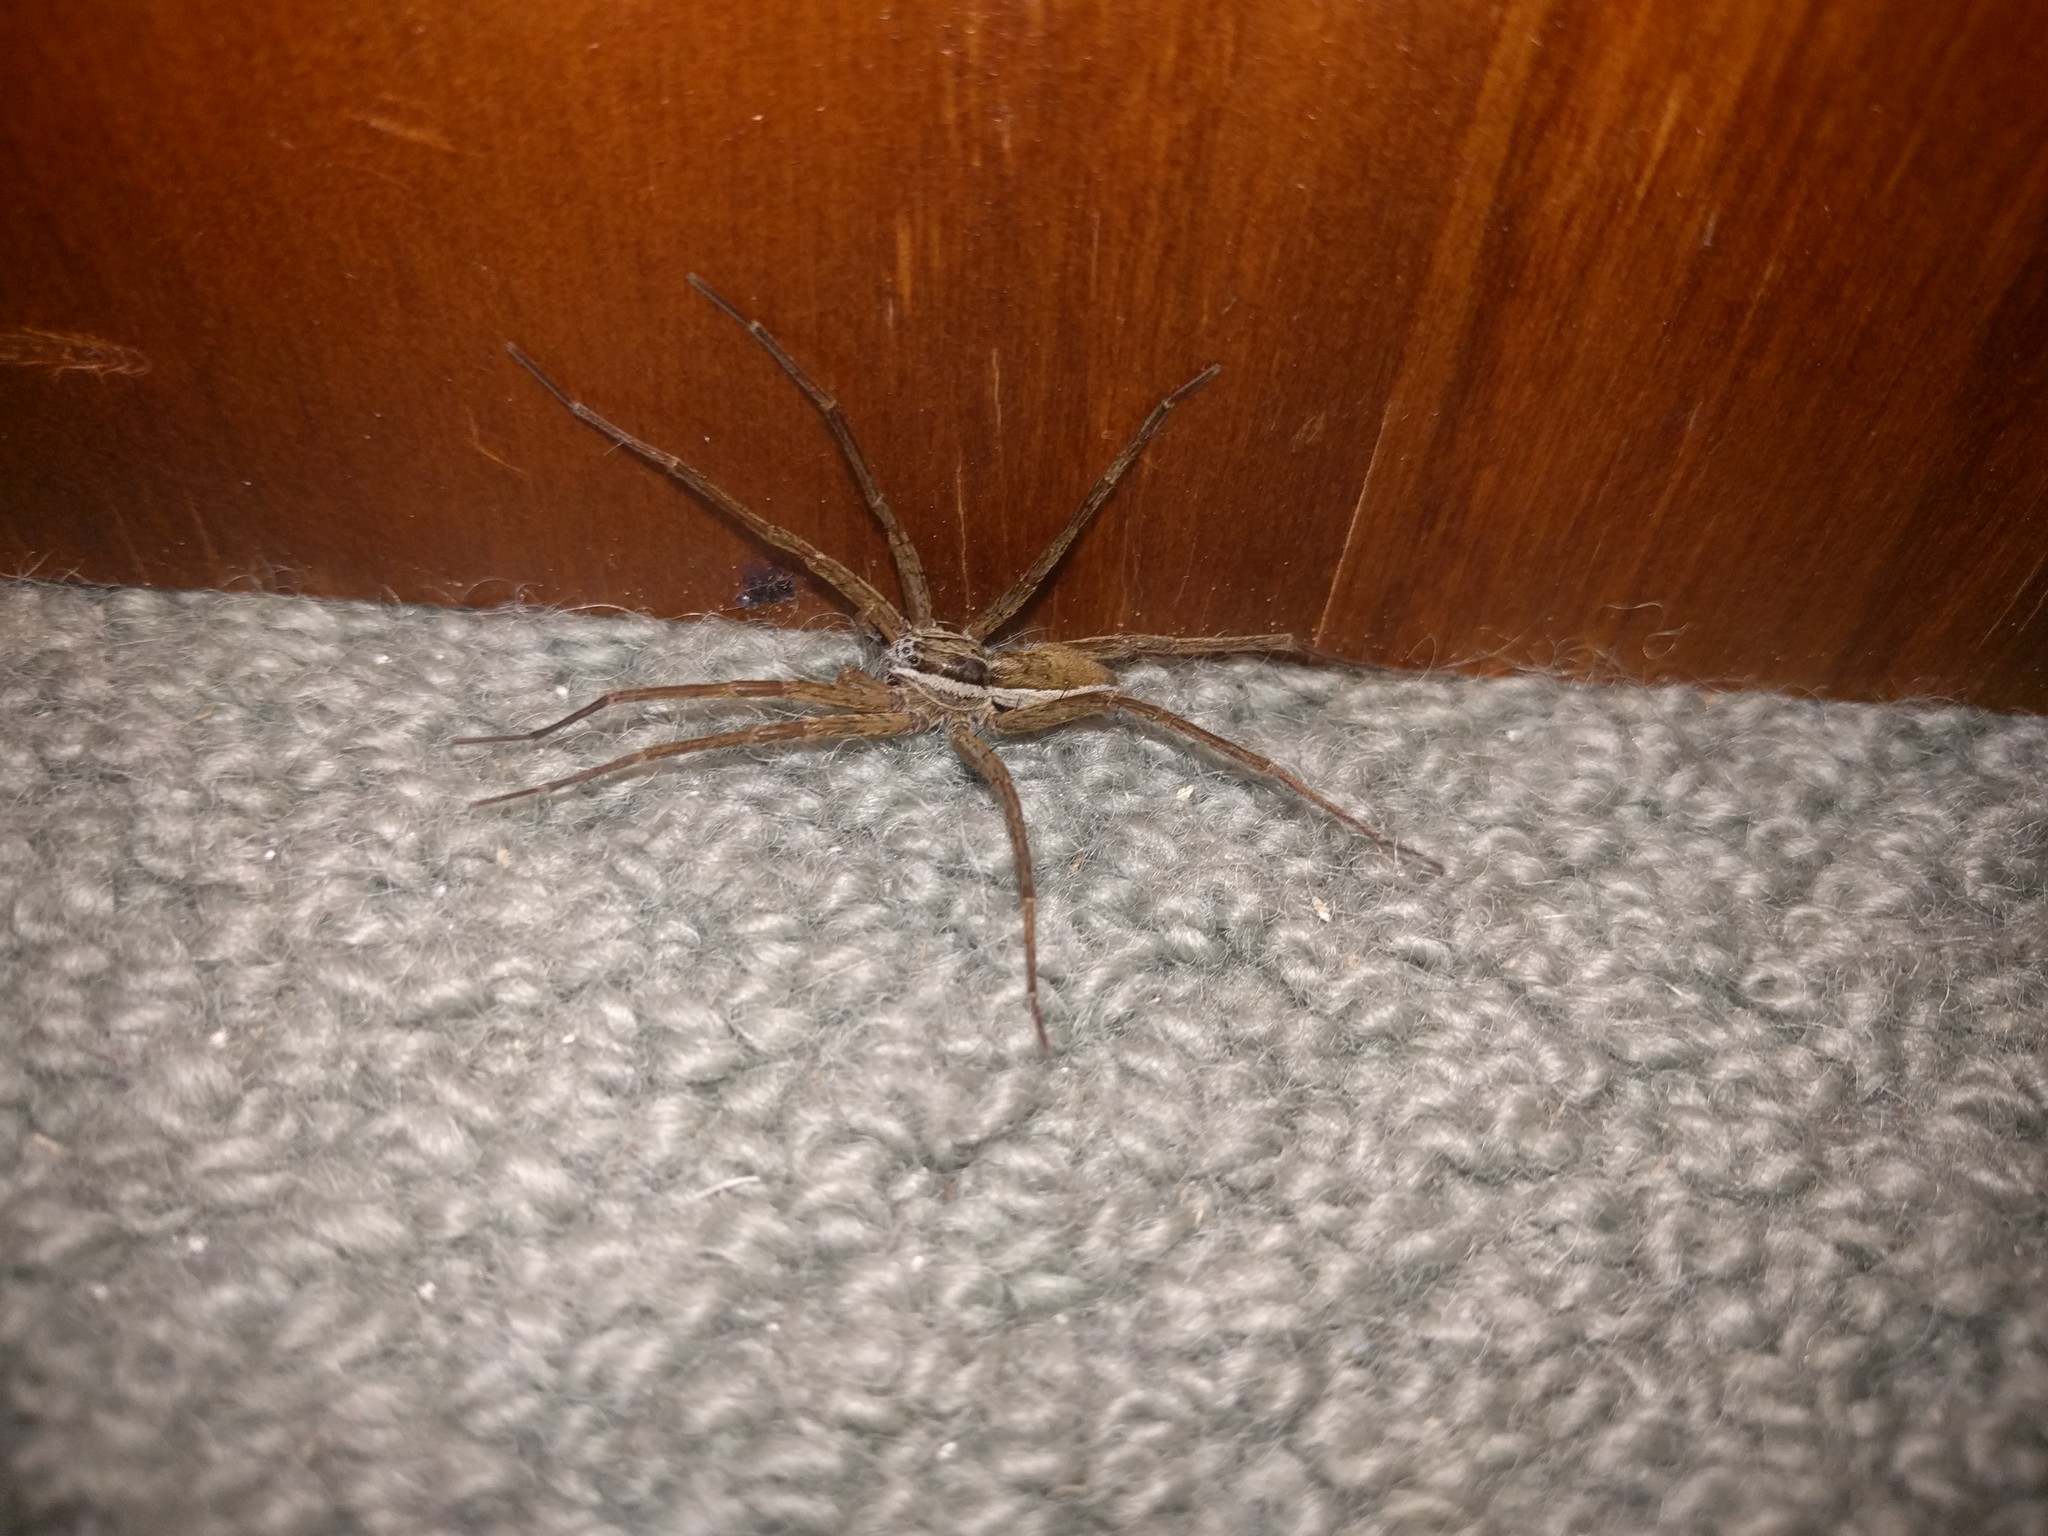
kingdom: Animalia
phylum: Arthropoda
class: Arachnida
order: Araneae
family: Pisauridae
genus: Dolomedes
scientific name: Dolomedes minor
